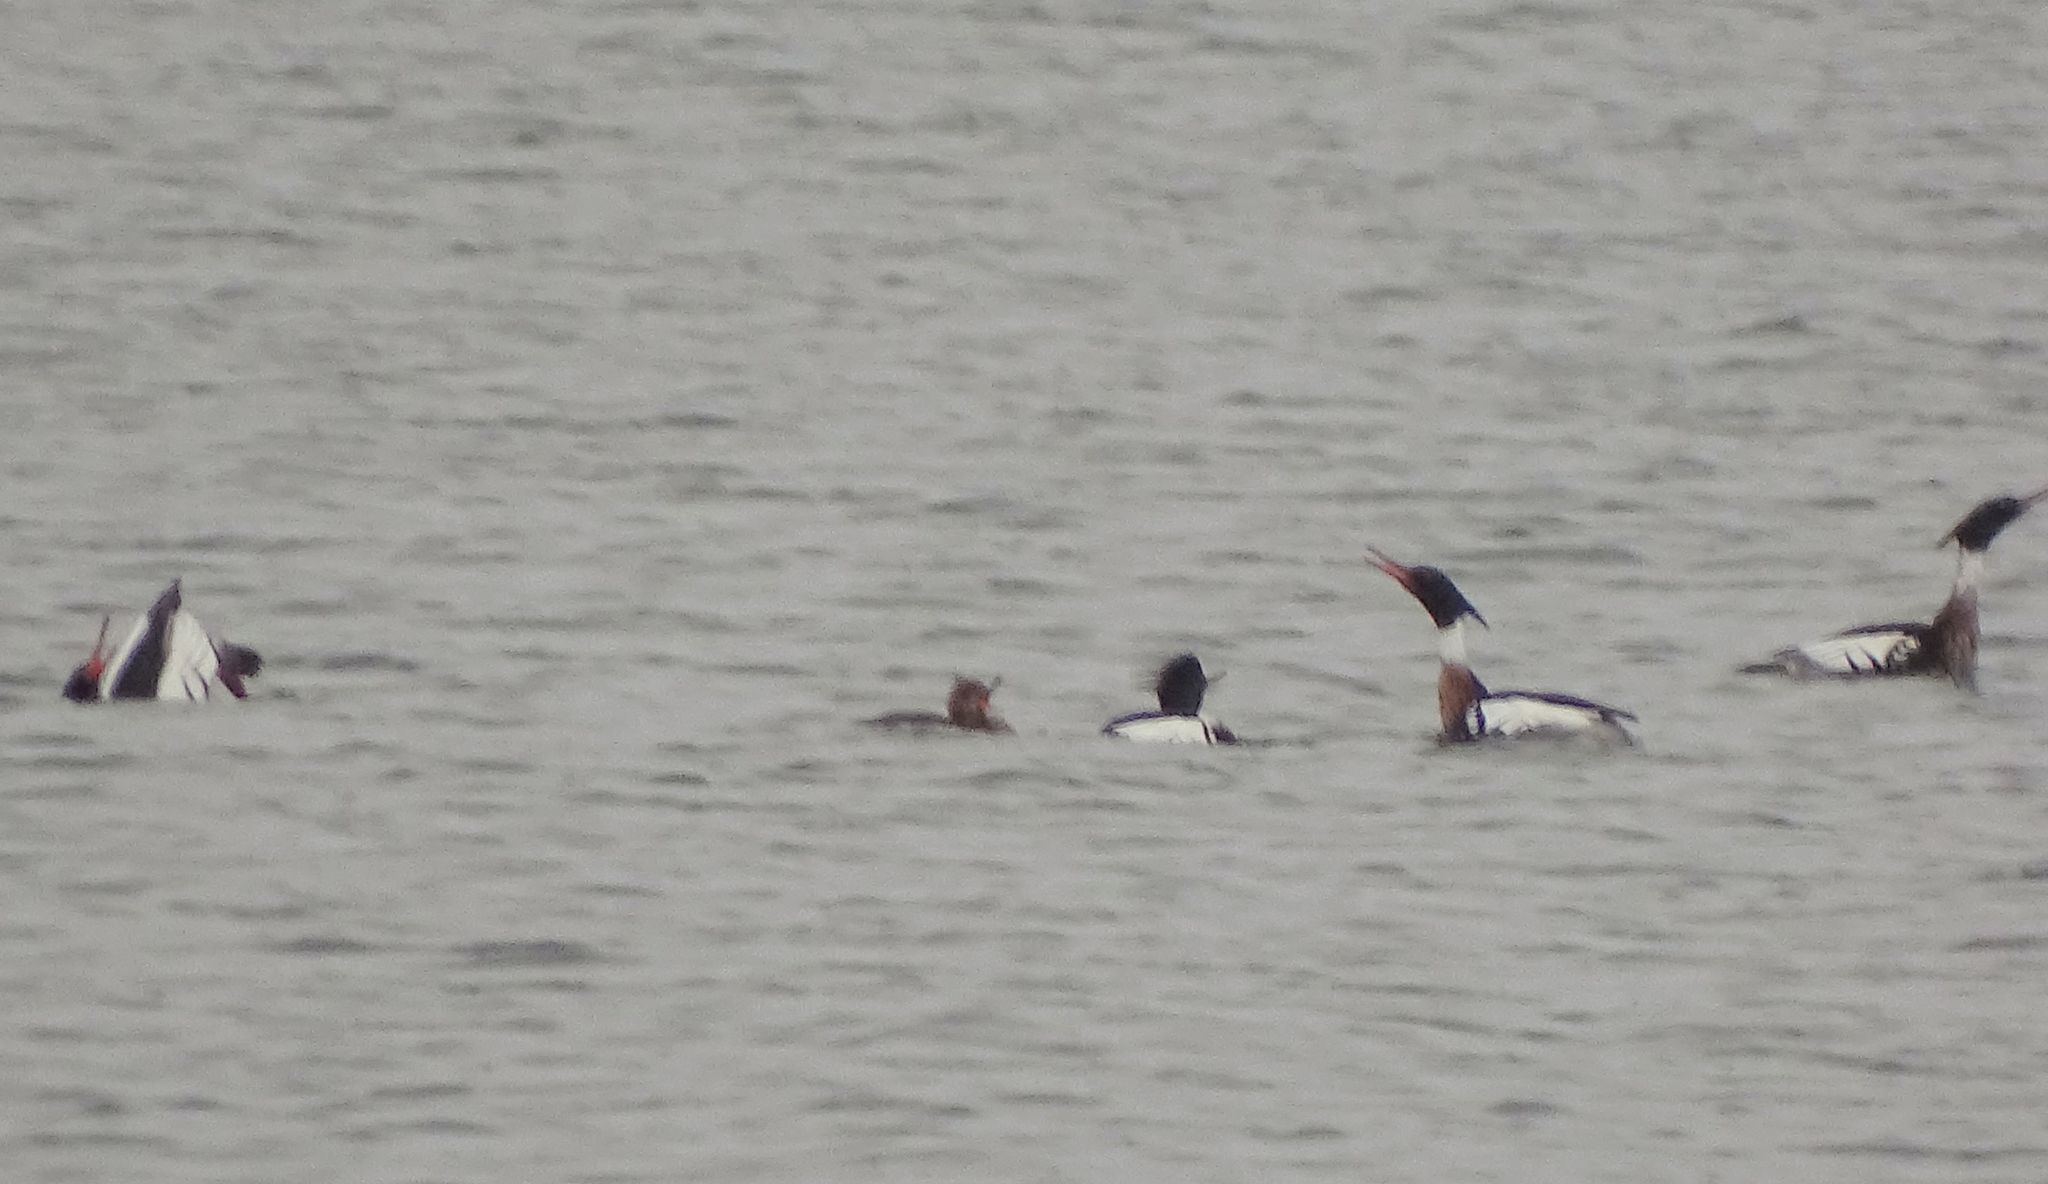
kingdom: Animalia
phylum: Chordata
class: Aves
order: Anseriformes
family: Anatidae
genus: Mergus
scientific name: Mergus serrator
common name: Red-breasted merganser
